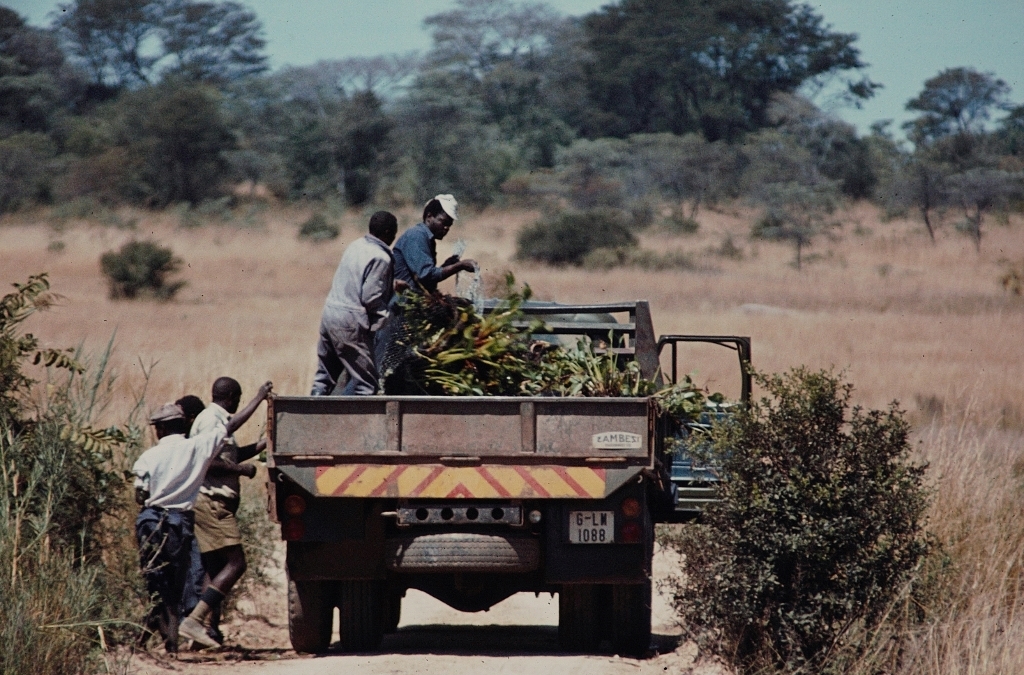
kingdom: Plantae
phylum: Tracheophyta
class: Liliopsida
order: Commelinales
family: Pontederiaceae
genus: Pontederia
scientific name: Pontederia crassipes
